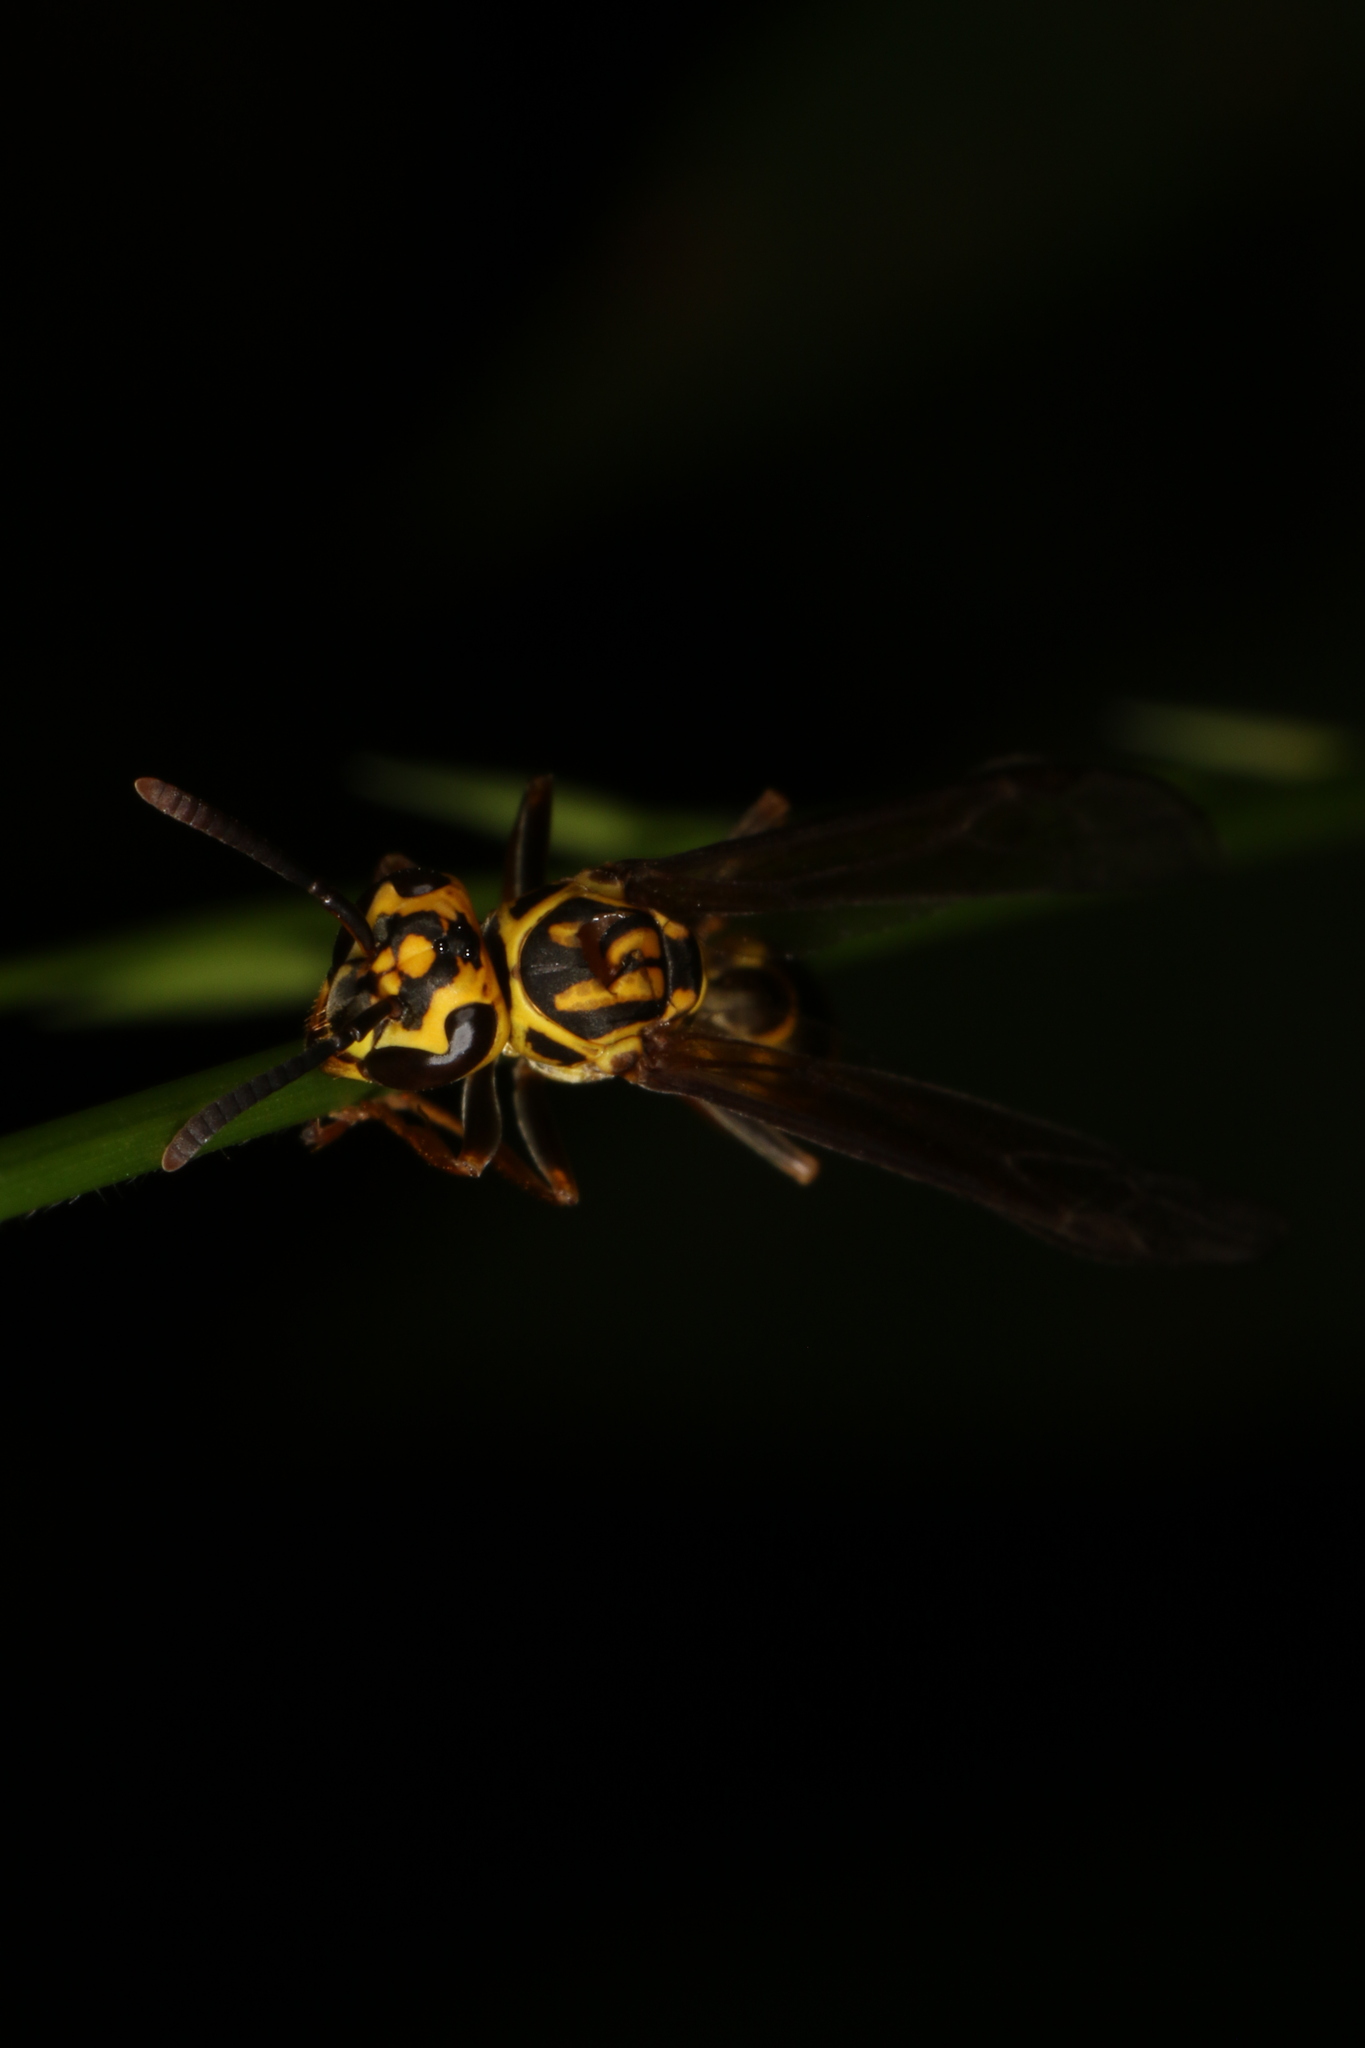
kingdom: Animalia
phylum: Arthropoda
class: Insecta
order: Hymenoptera
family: Eumenidae
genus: Polybia
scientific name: Polybia fastidiosuscula
